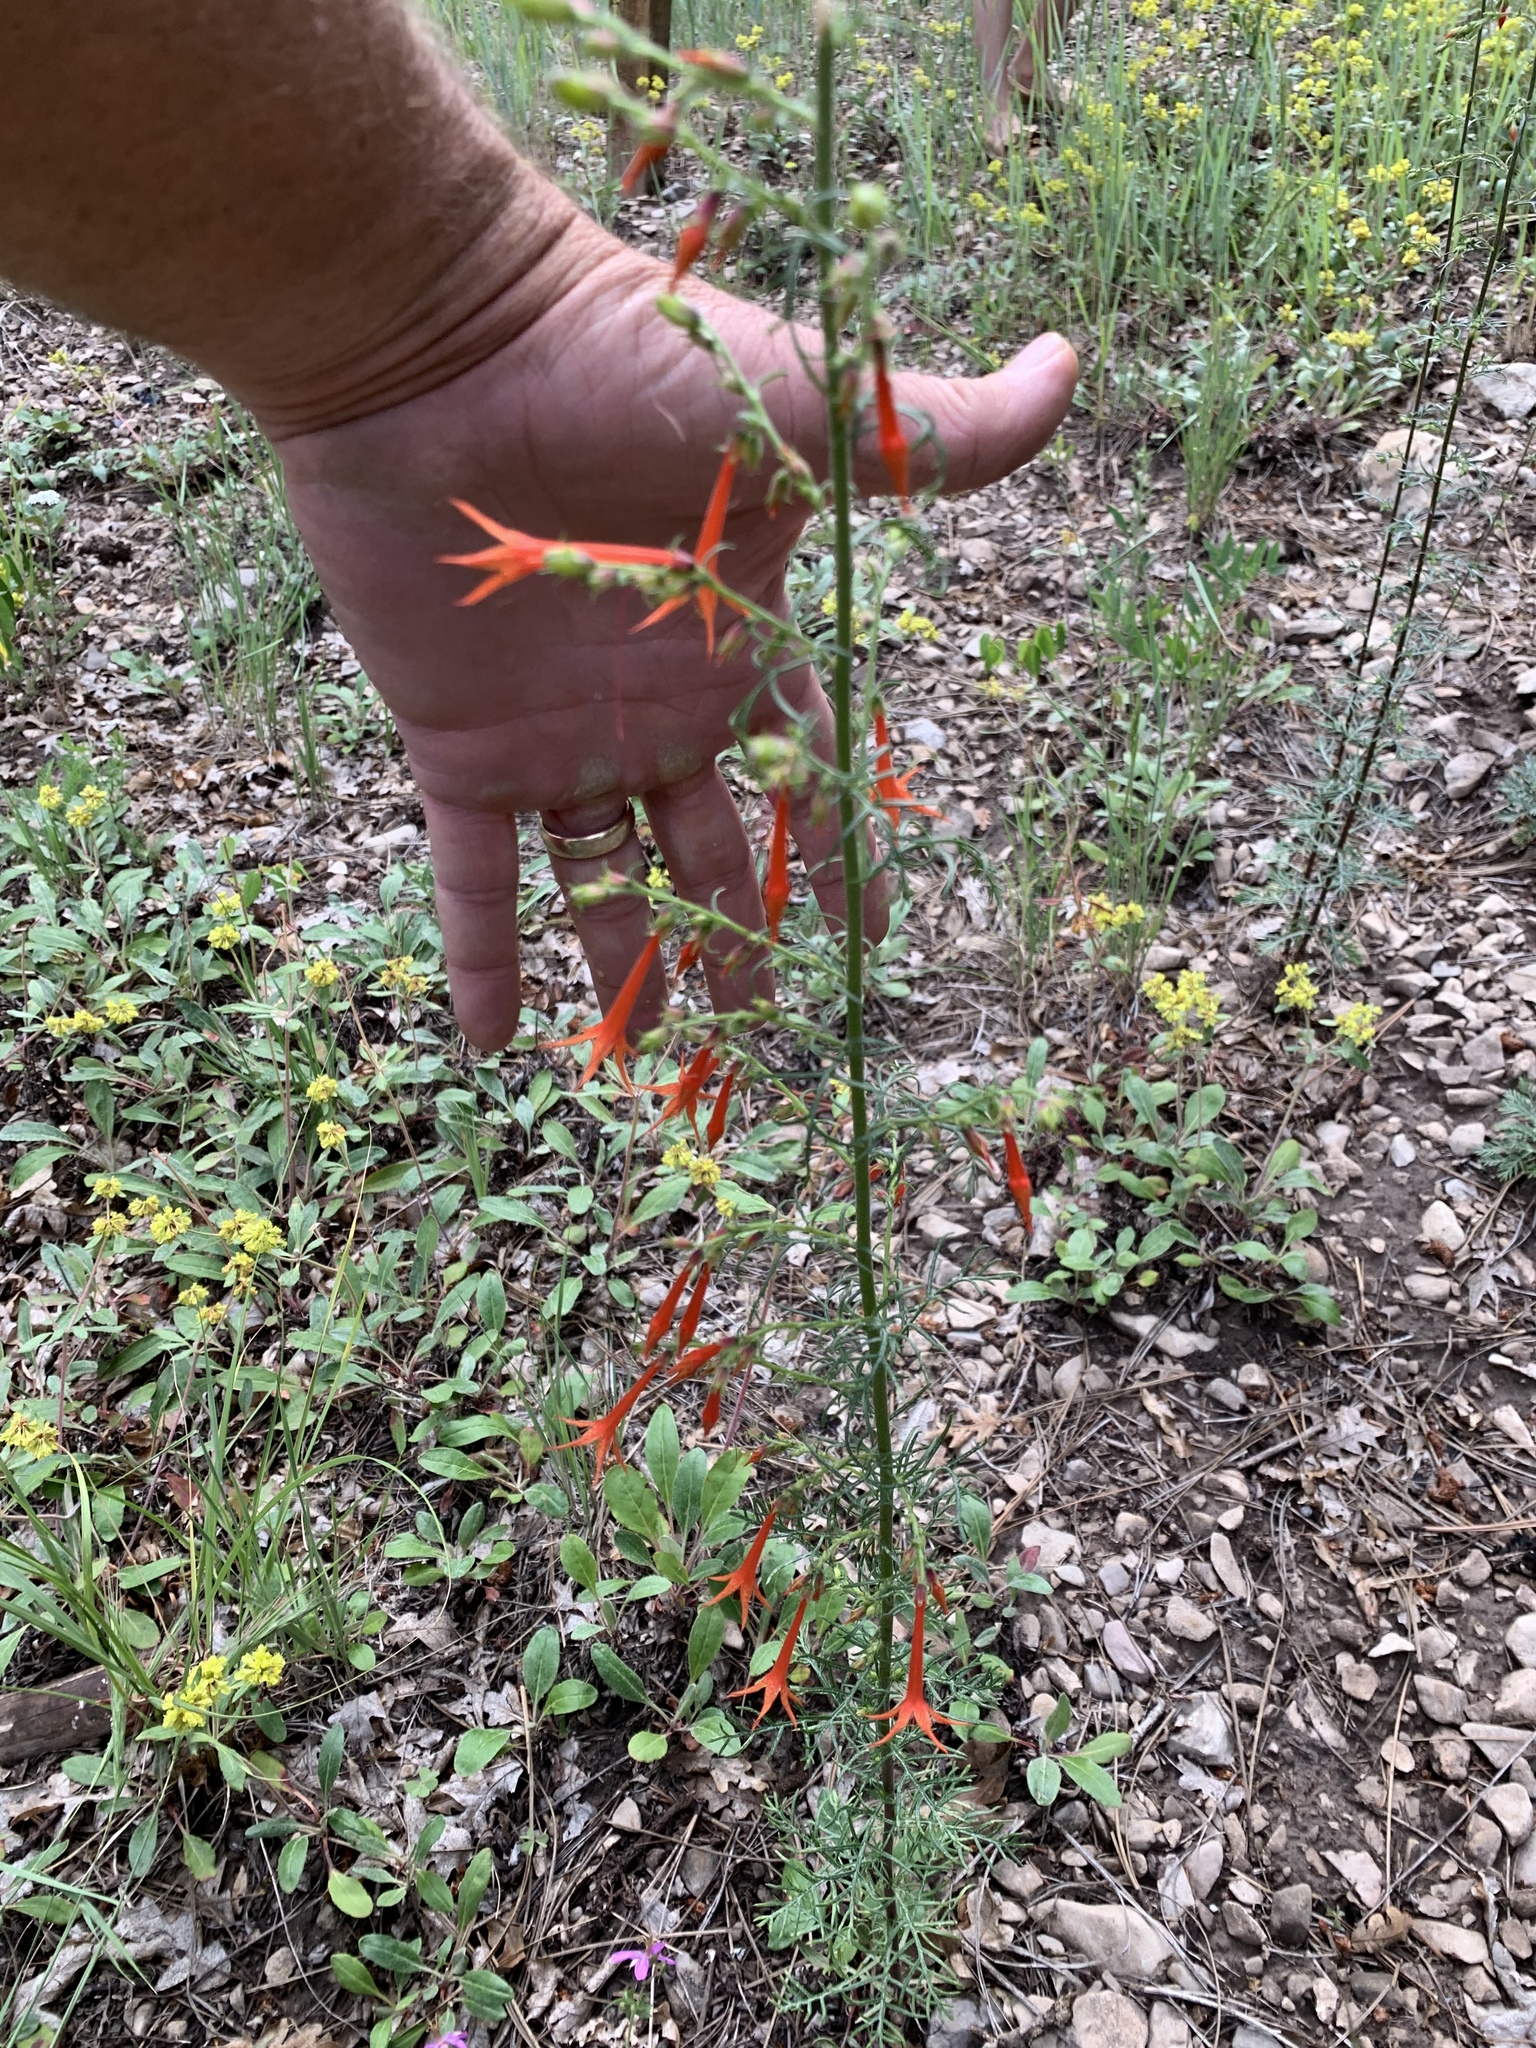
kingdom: Plantae
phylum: Tracheophyta
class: Magnoliopsida
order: Ericales
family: Polemoniaceae
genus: Ipomopsis
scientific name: Ipomopsis aggregata
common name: Scarlet gilia
